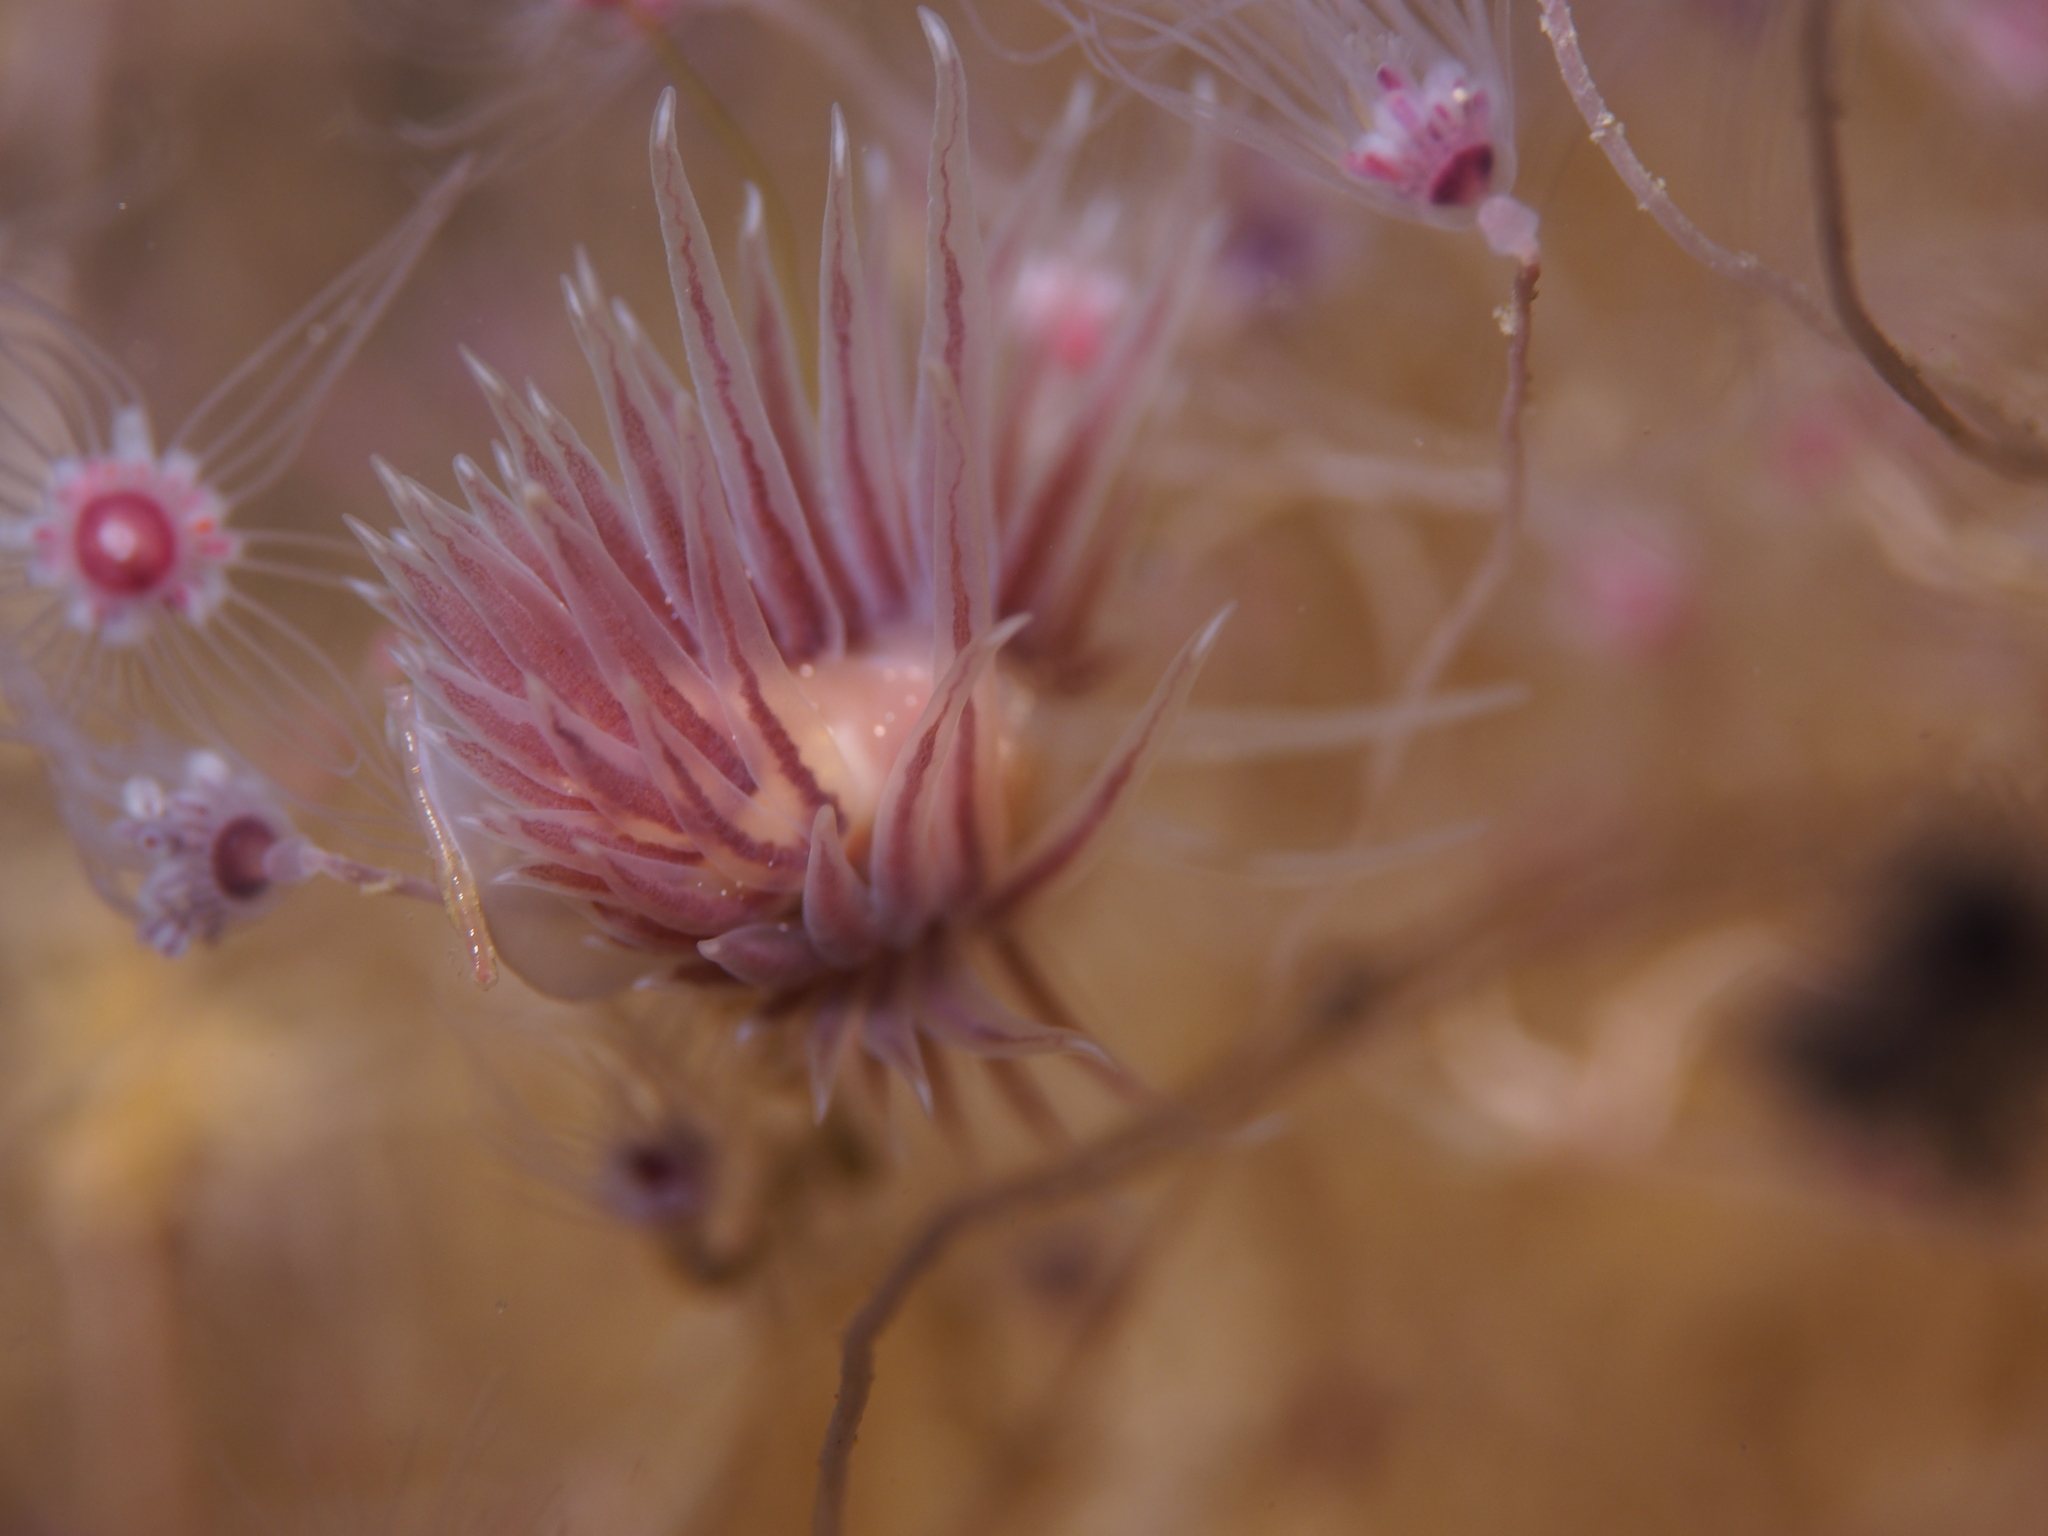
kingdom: Animalia
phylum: Mollusca
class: Gastropoda
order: Nudibranchia
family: Cumanotidae
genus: Cumanotus
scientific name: Cumanotus beaumonti
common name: Polyp aeolis
